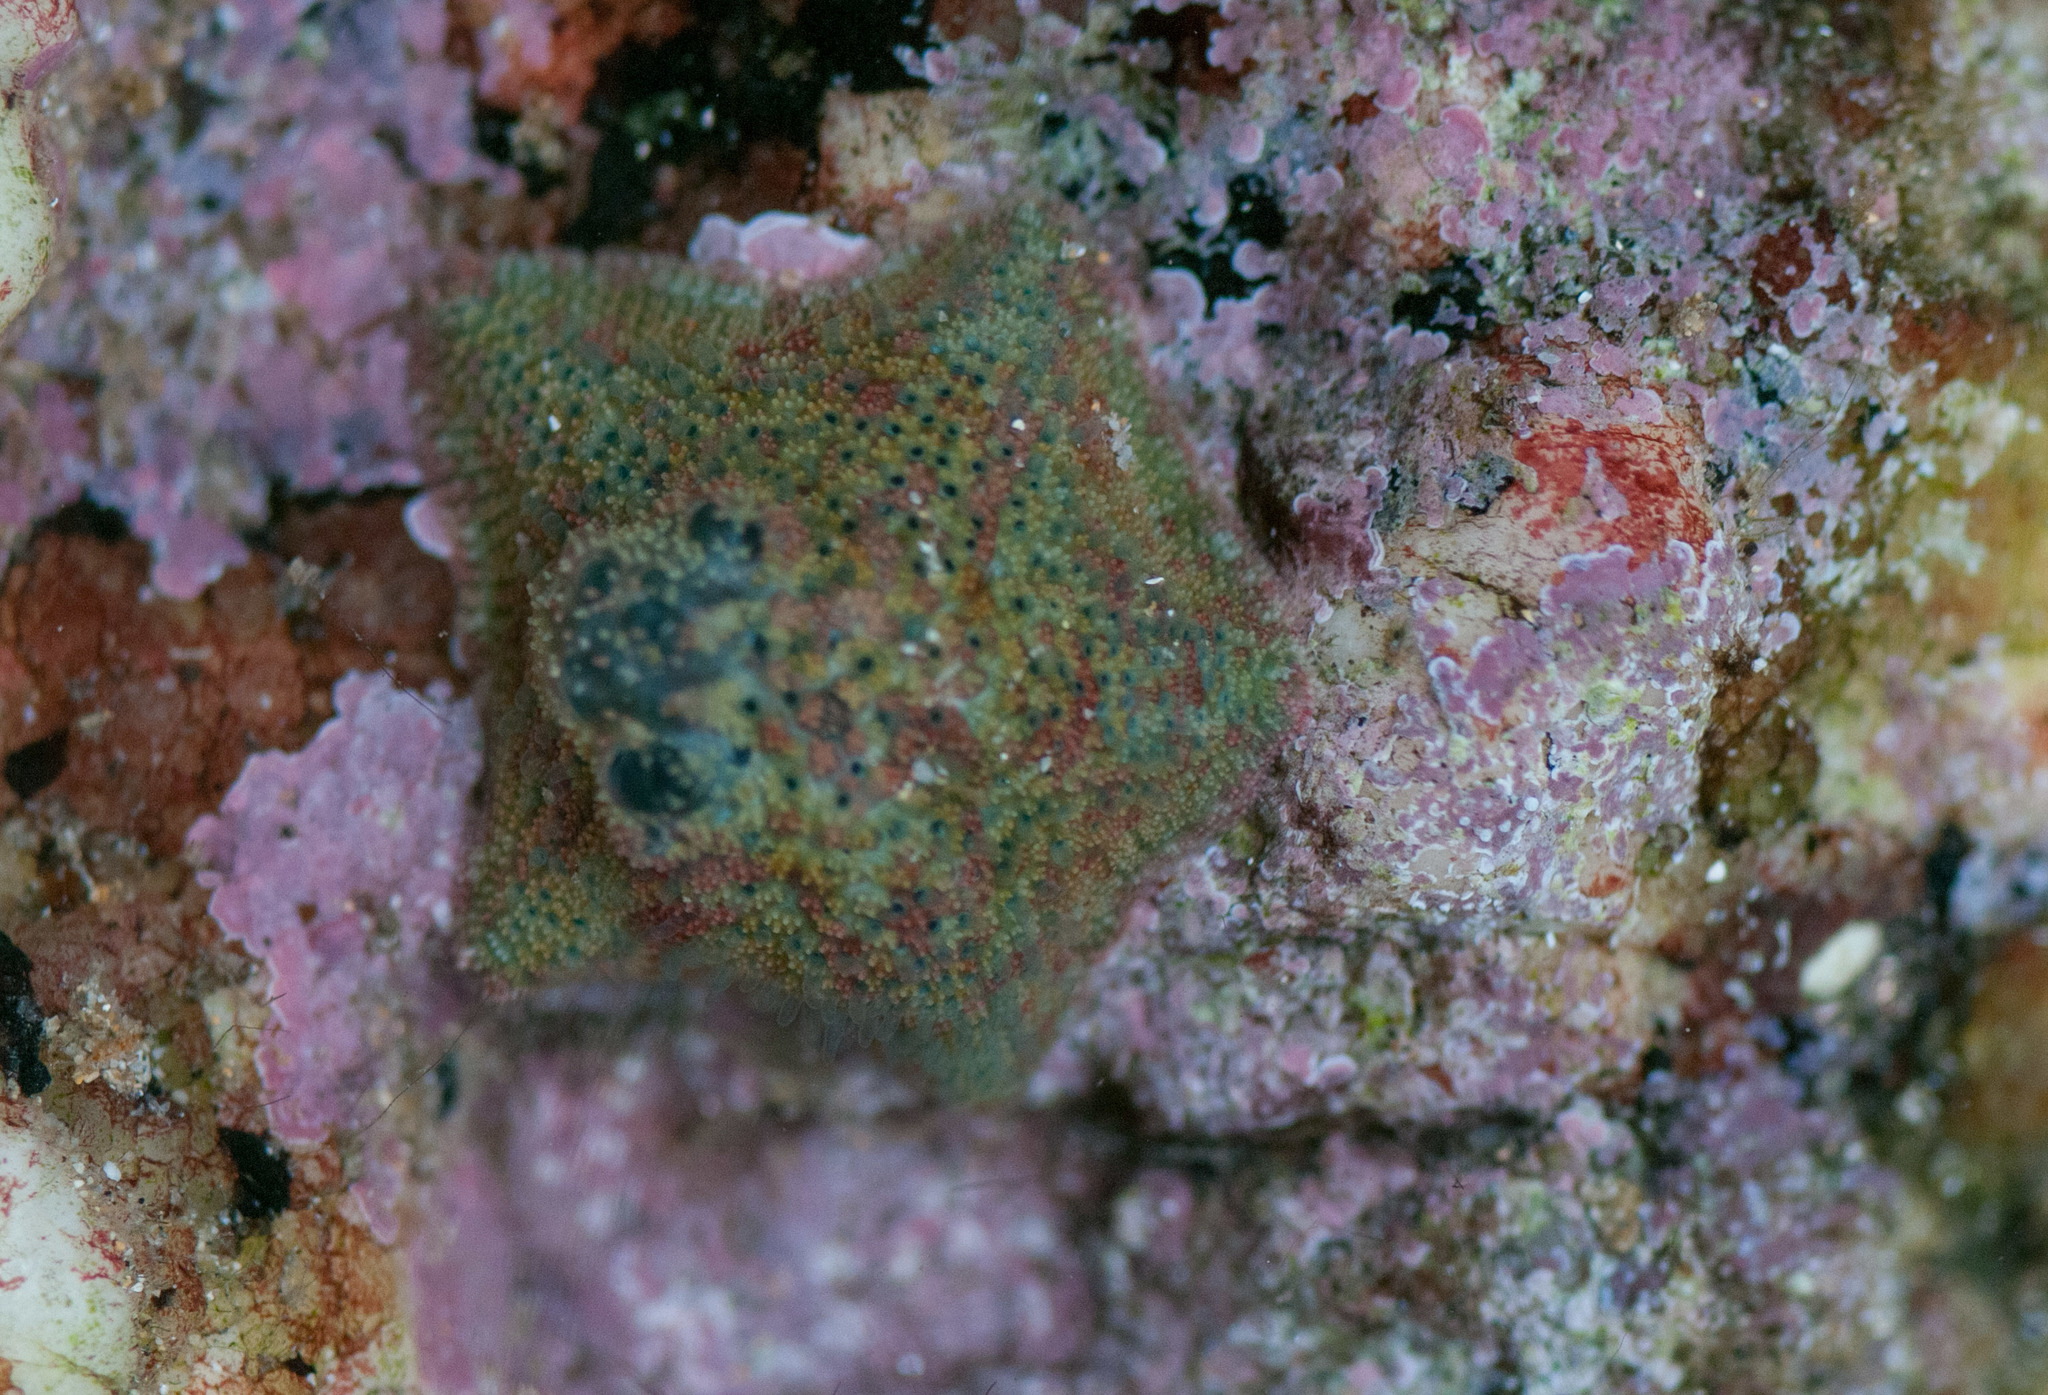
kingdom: Animalia
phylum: Echinodermata
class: Asteroidea
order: Valvatida
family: Asterinidae
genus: Parvulastra
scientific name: Parvulastra exigua
